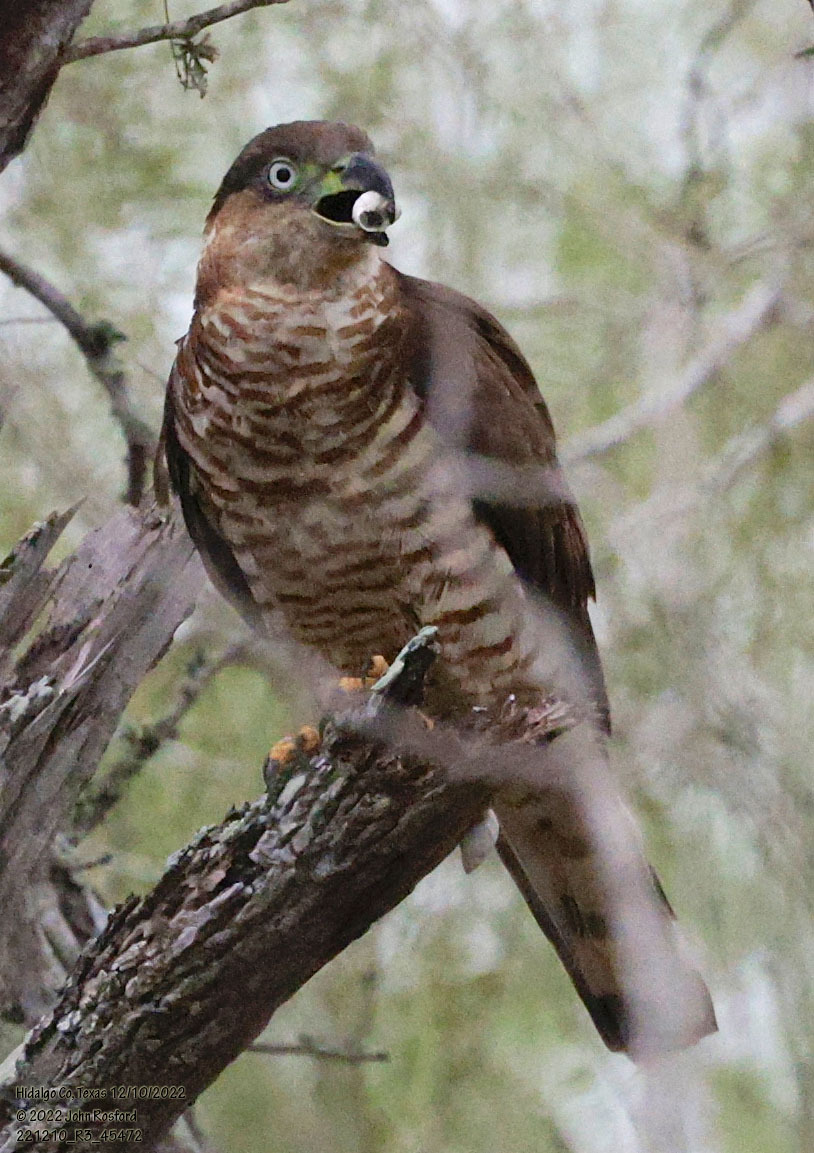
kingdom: Animalia
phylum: Chordata
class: Aves
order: Accipitriformes
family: Accipitridae
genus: Chondrohierax
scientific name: Chondrohierax uncinatus
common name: Hook-billed kite
